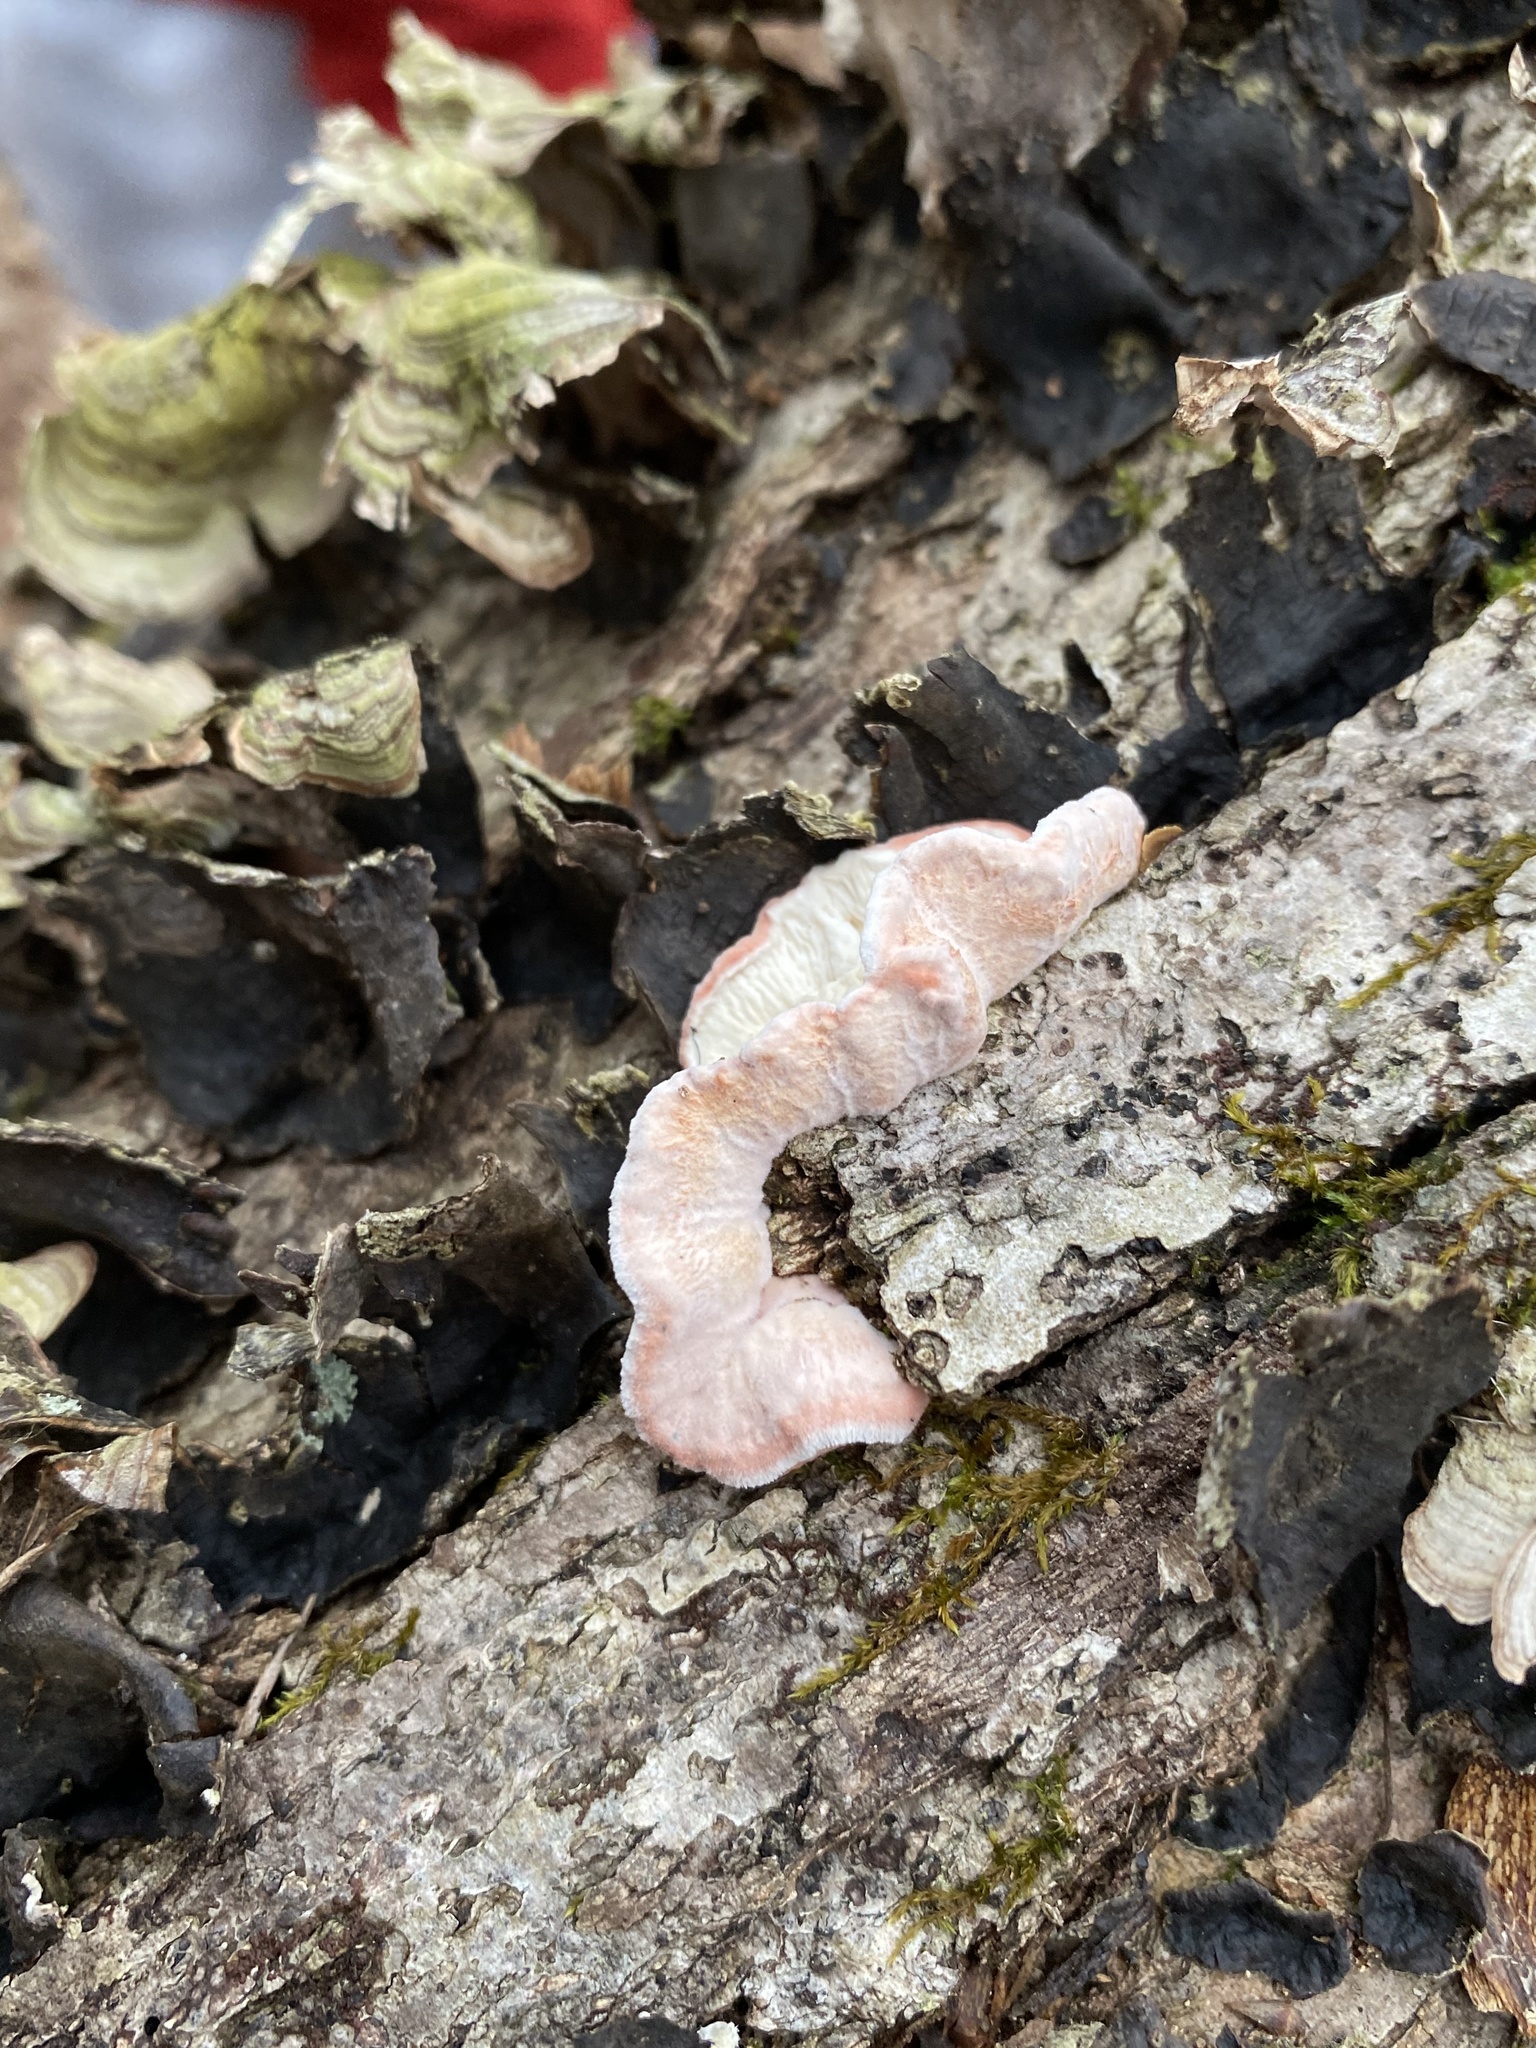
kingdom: Fungi
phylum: Basidiomycota
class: Agaricomycetes
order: Polyporales
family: Irpicaceae
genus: Byssomerulius
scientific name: Byssomerulius incarnatus
